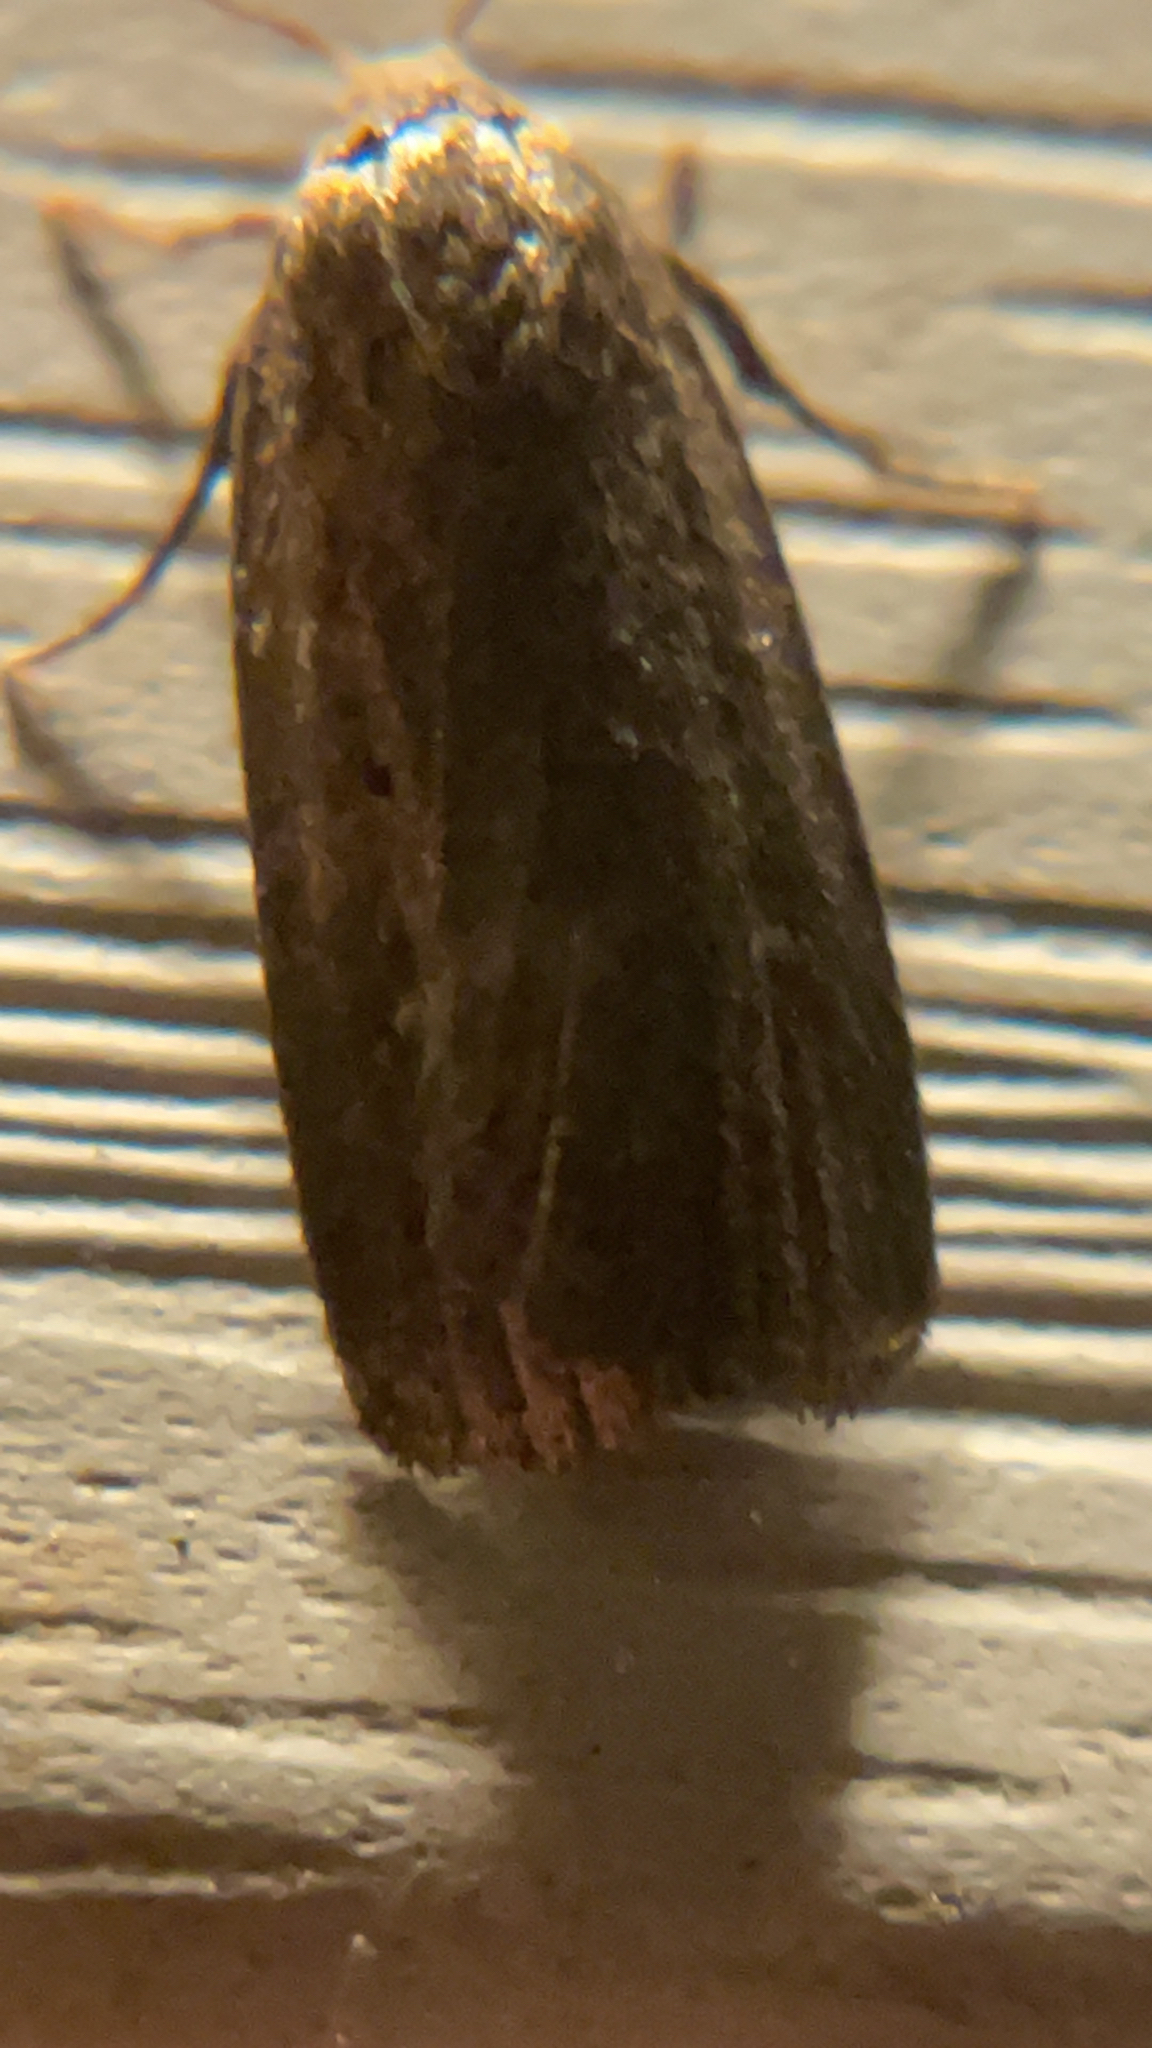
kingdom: Animalia
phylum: Arthropoda
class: Insecta
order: Lepidoptera
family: Noctuidae
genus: Proxenus
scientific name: Proxenus miranda
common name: Miranda moth
